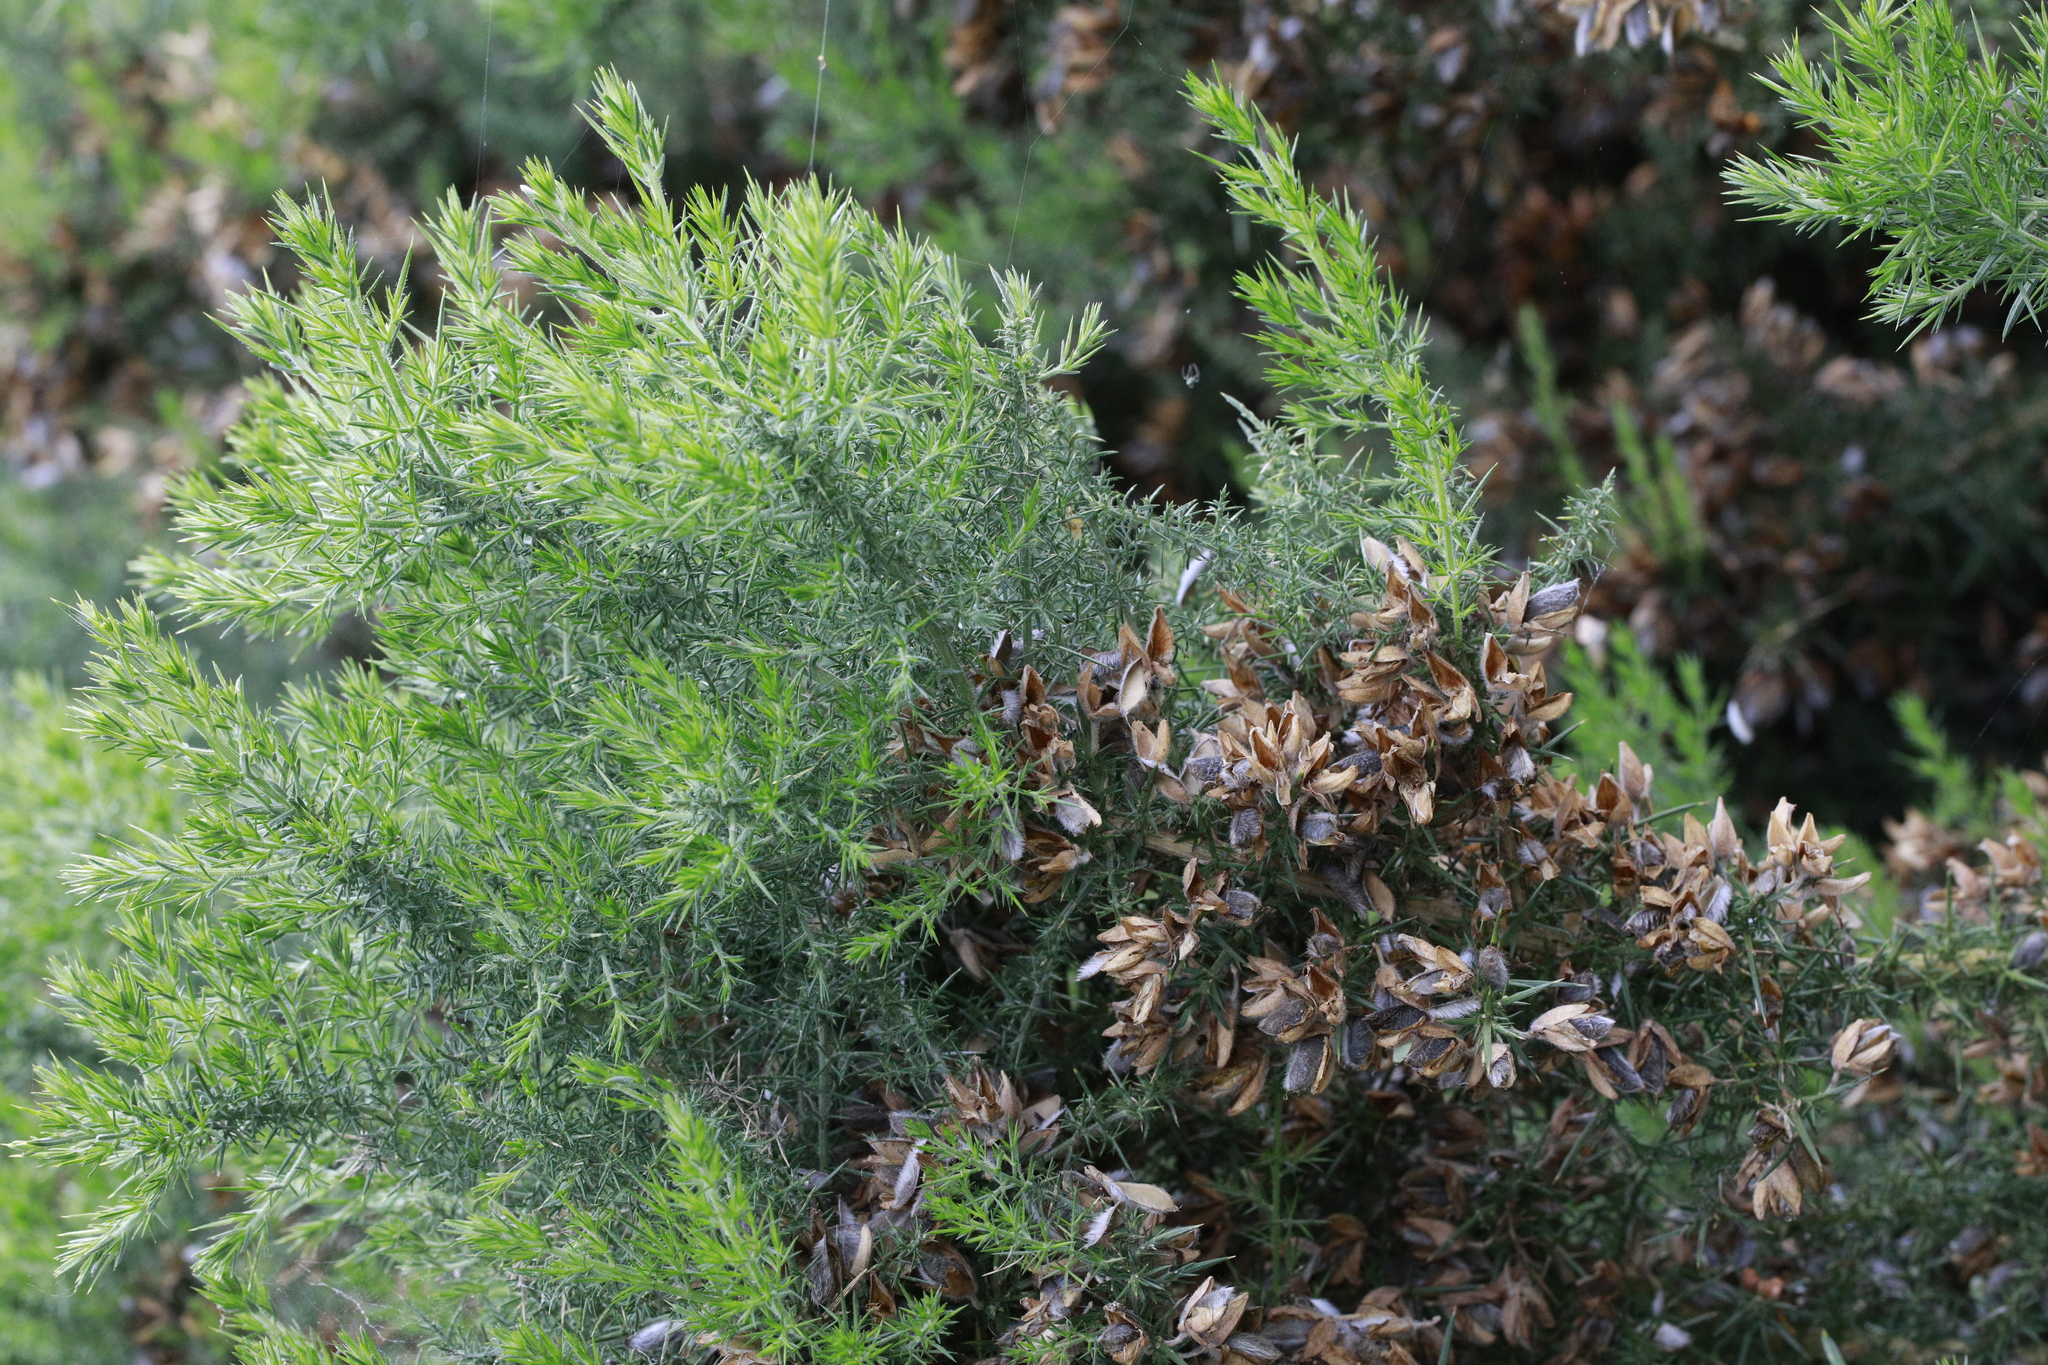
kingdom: Plantae
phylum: Tracheophyta
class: Magnoliopsida
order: Fabales
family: Fabaceae
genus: Ulex
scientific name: Ulex europaeus
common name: Common gorse
